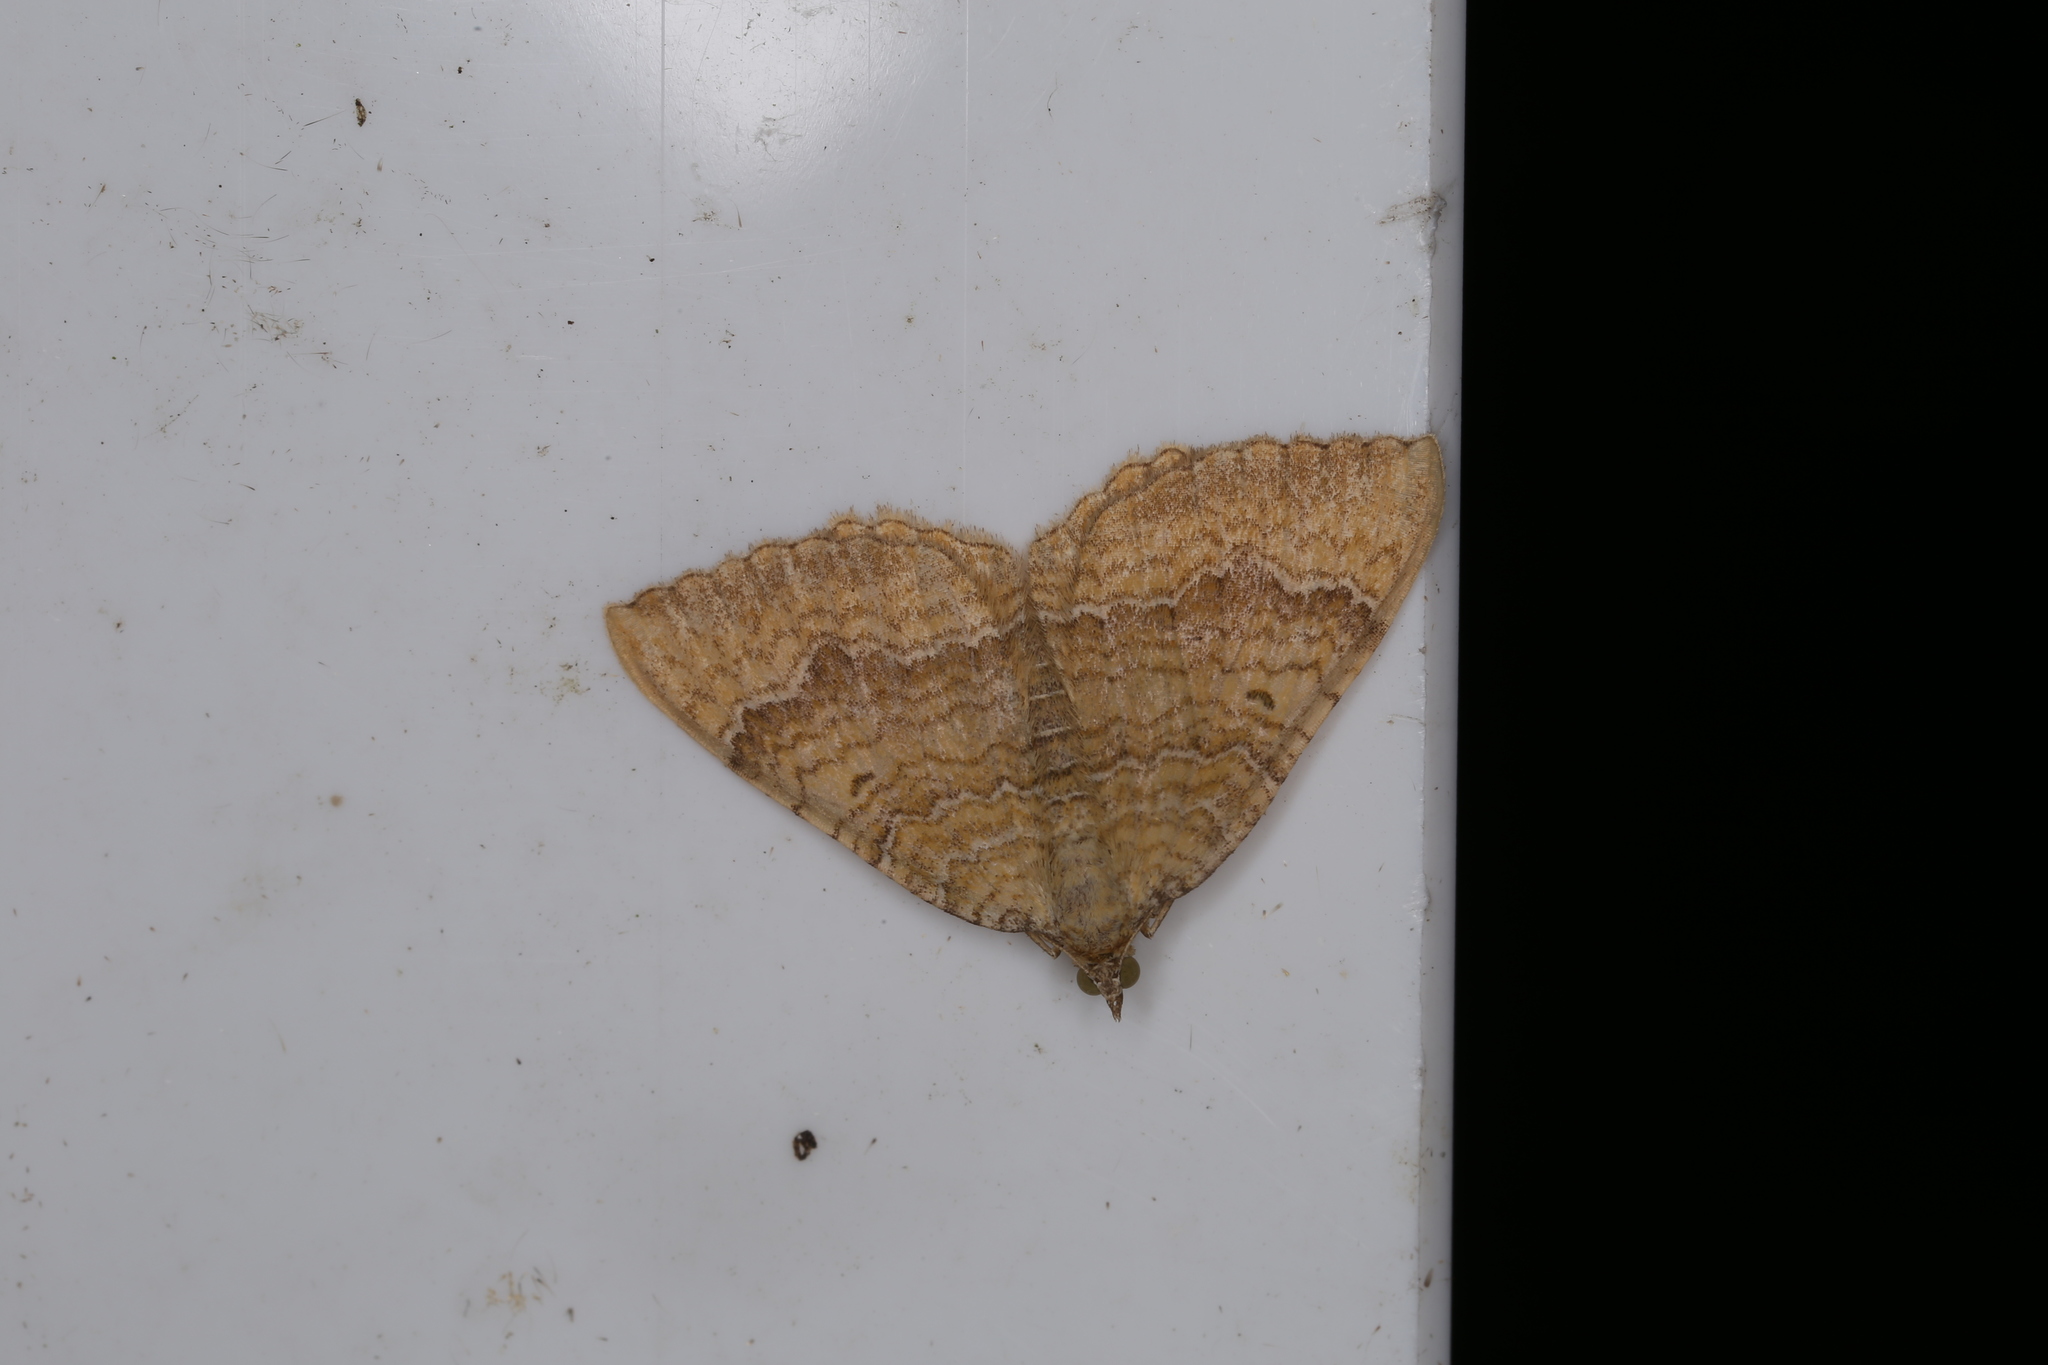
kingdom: Animalia
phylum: Arthropoda
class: Insecta
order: Lepidoptera
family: Geometridae
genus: Camptogramma
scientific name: Camptogramma bilineata
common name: Yellow shell
